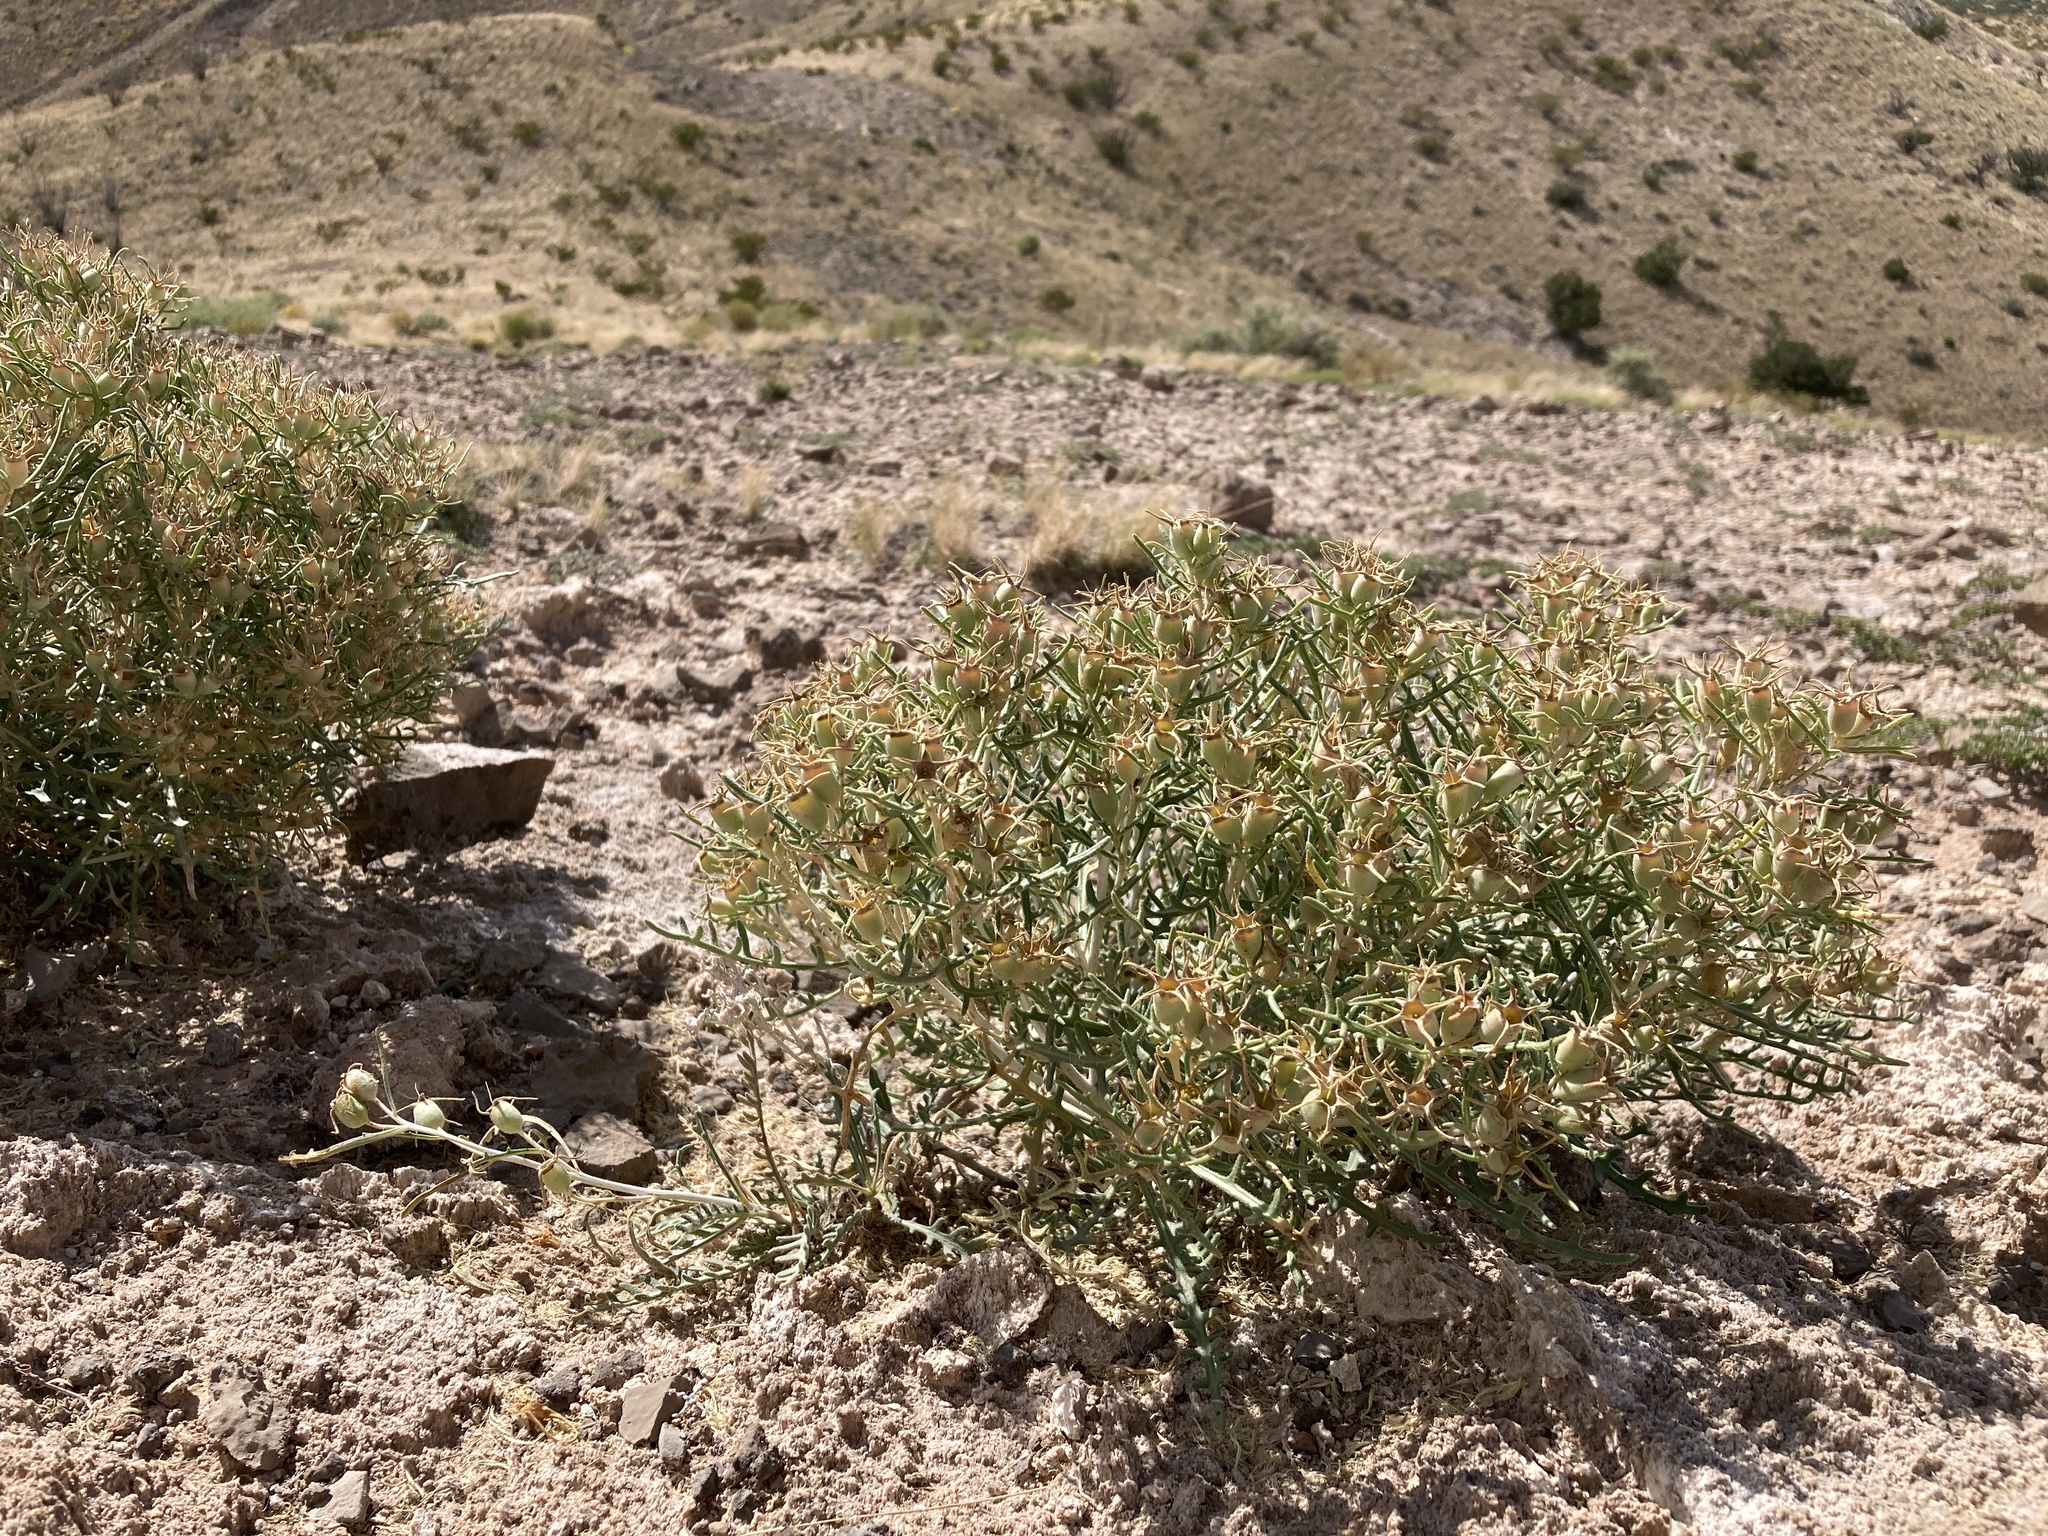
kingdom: Plantae
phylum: Tracheophyta
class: Magnoliopsida
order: Cornales
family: Loasaceae
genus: Mentzelia
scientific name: Mentzelia humilis
